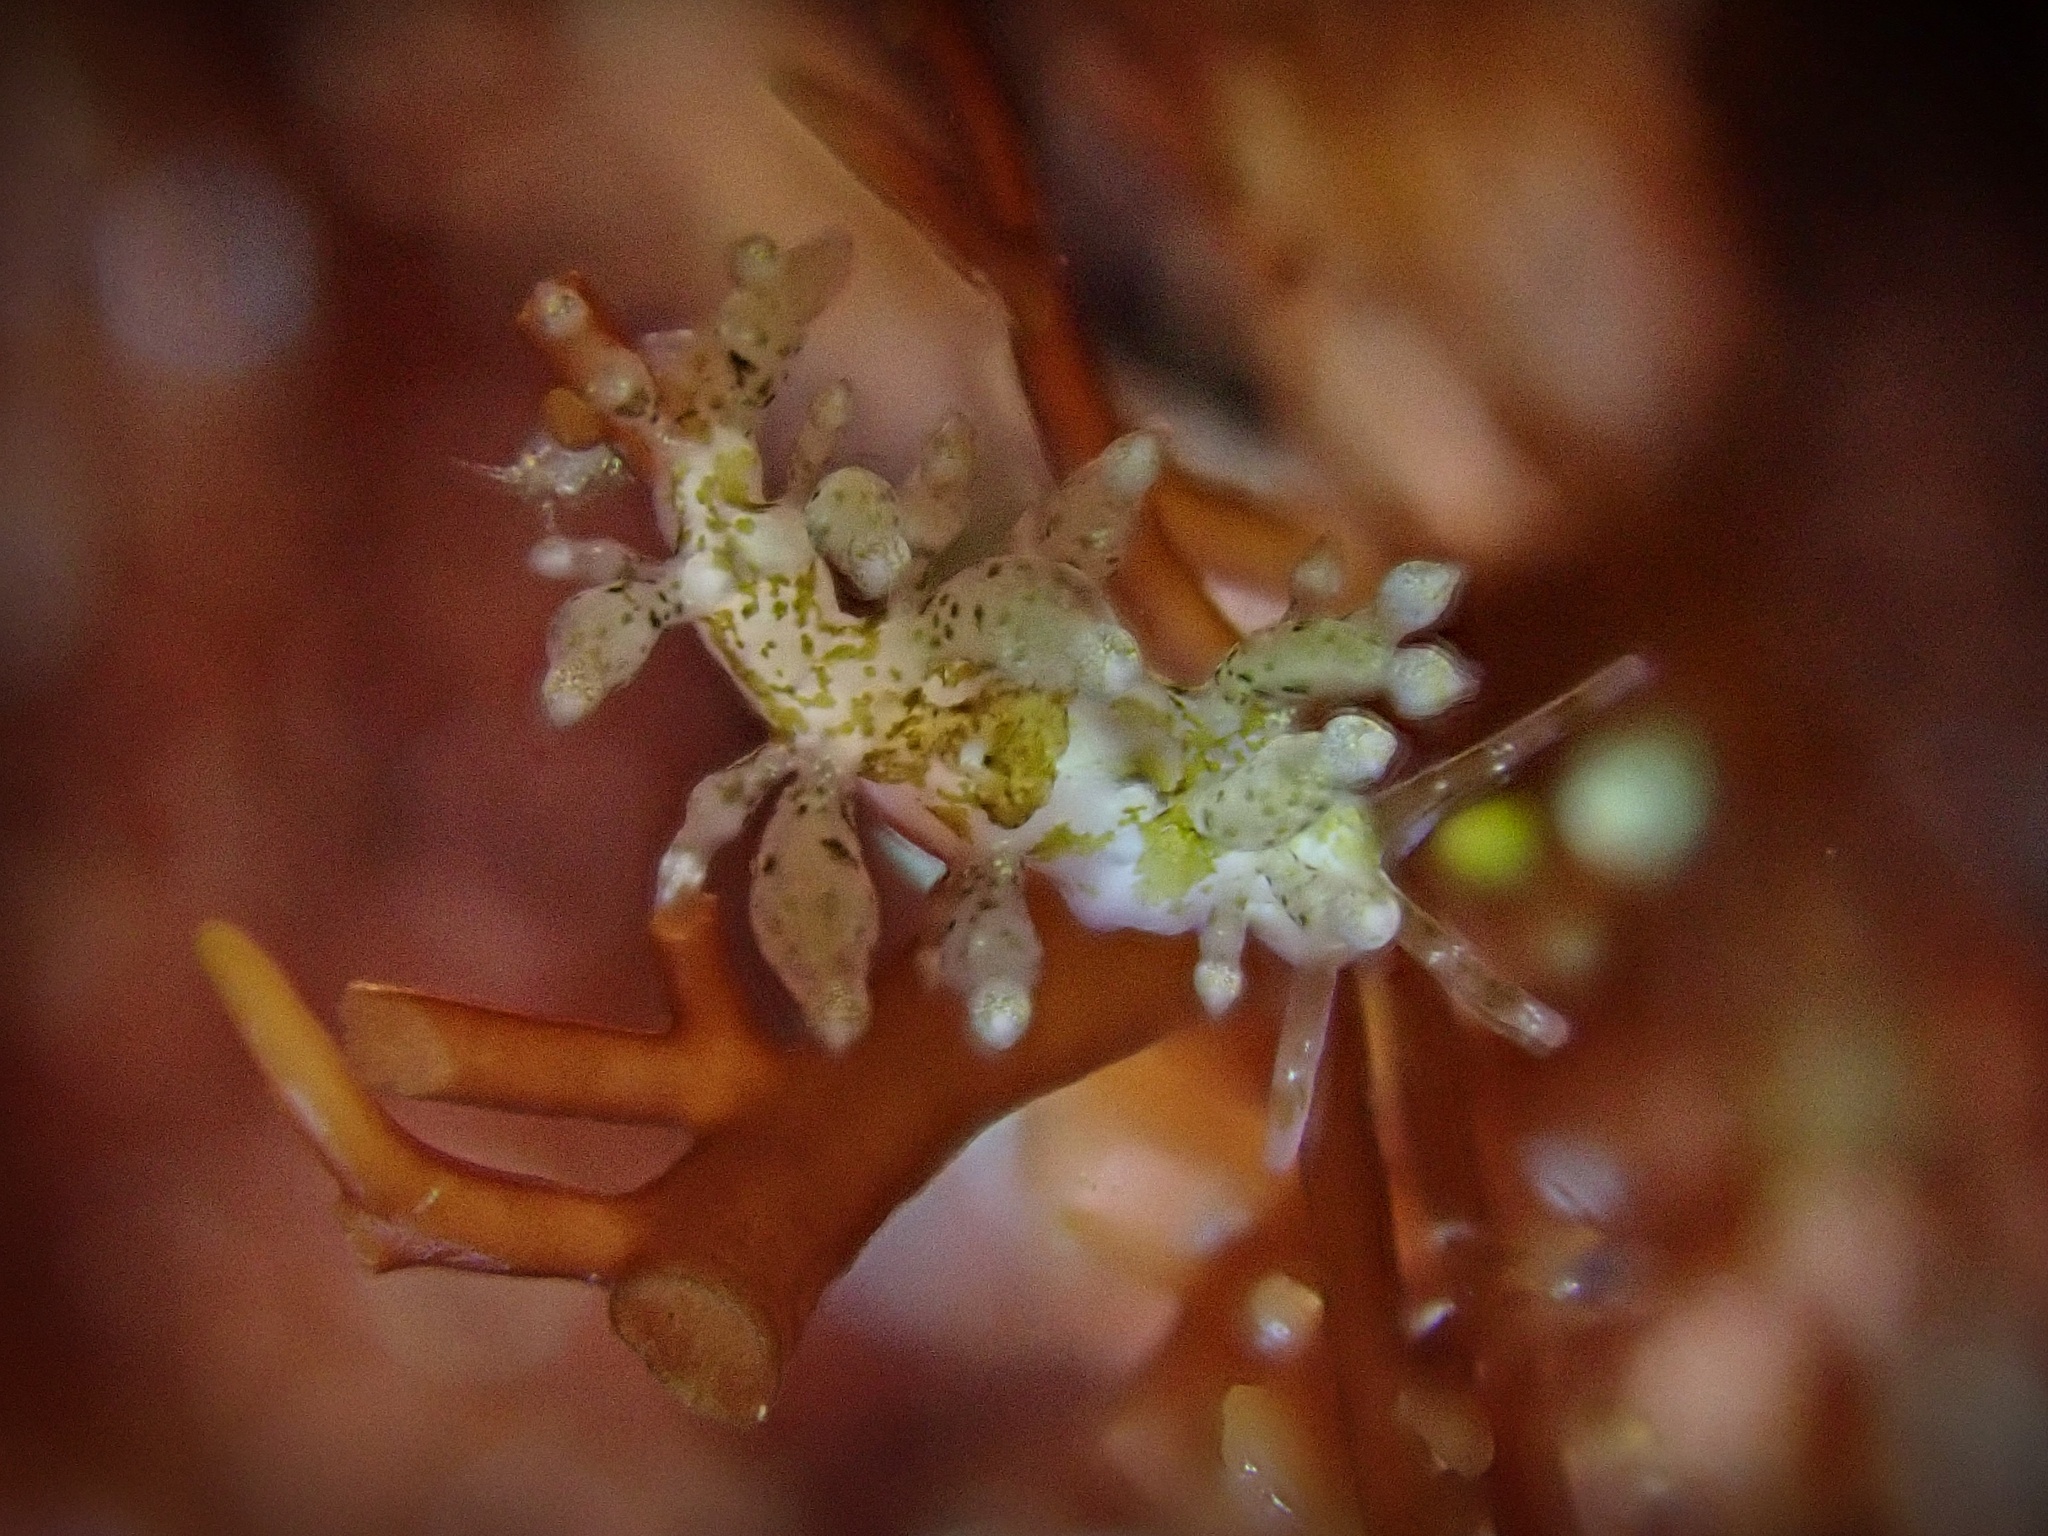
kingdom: Animalia
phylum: Mollusca
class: Gastropoda
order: Nudibranchia
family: Eubranchidae
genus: Eubranchus
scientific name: Eubranchus rustyus
